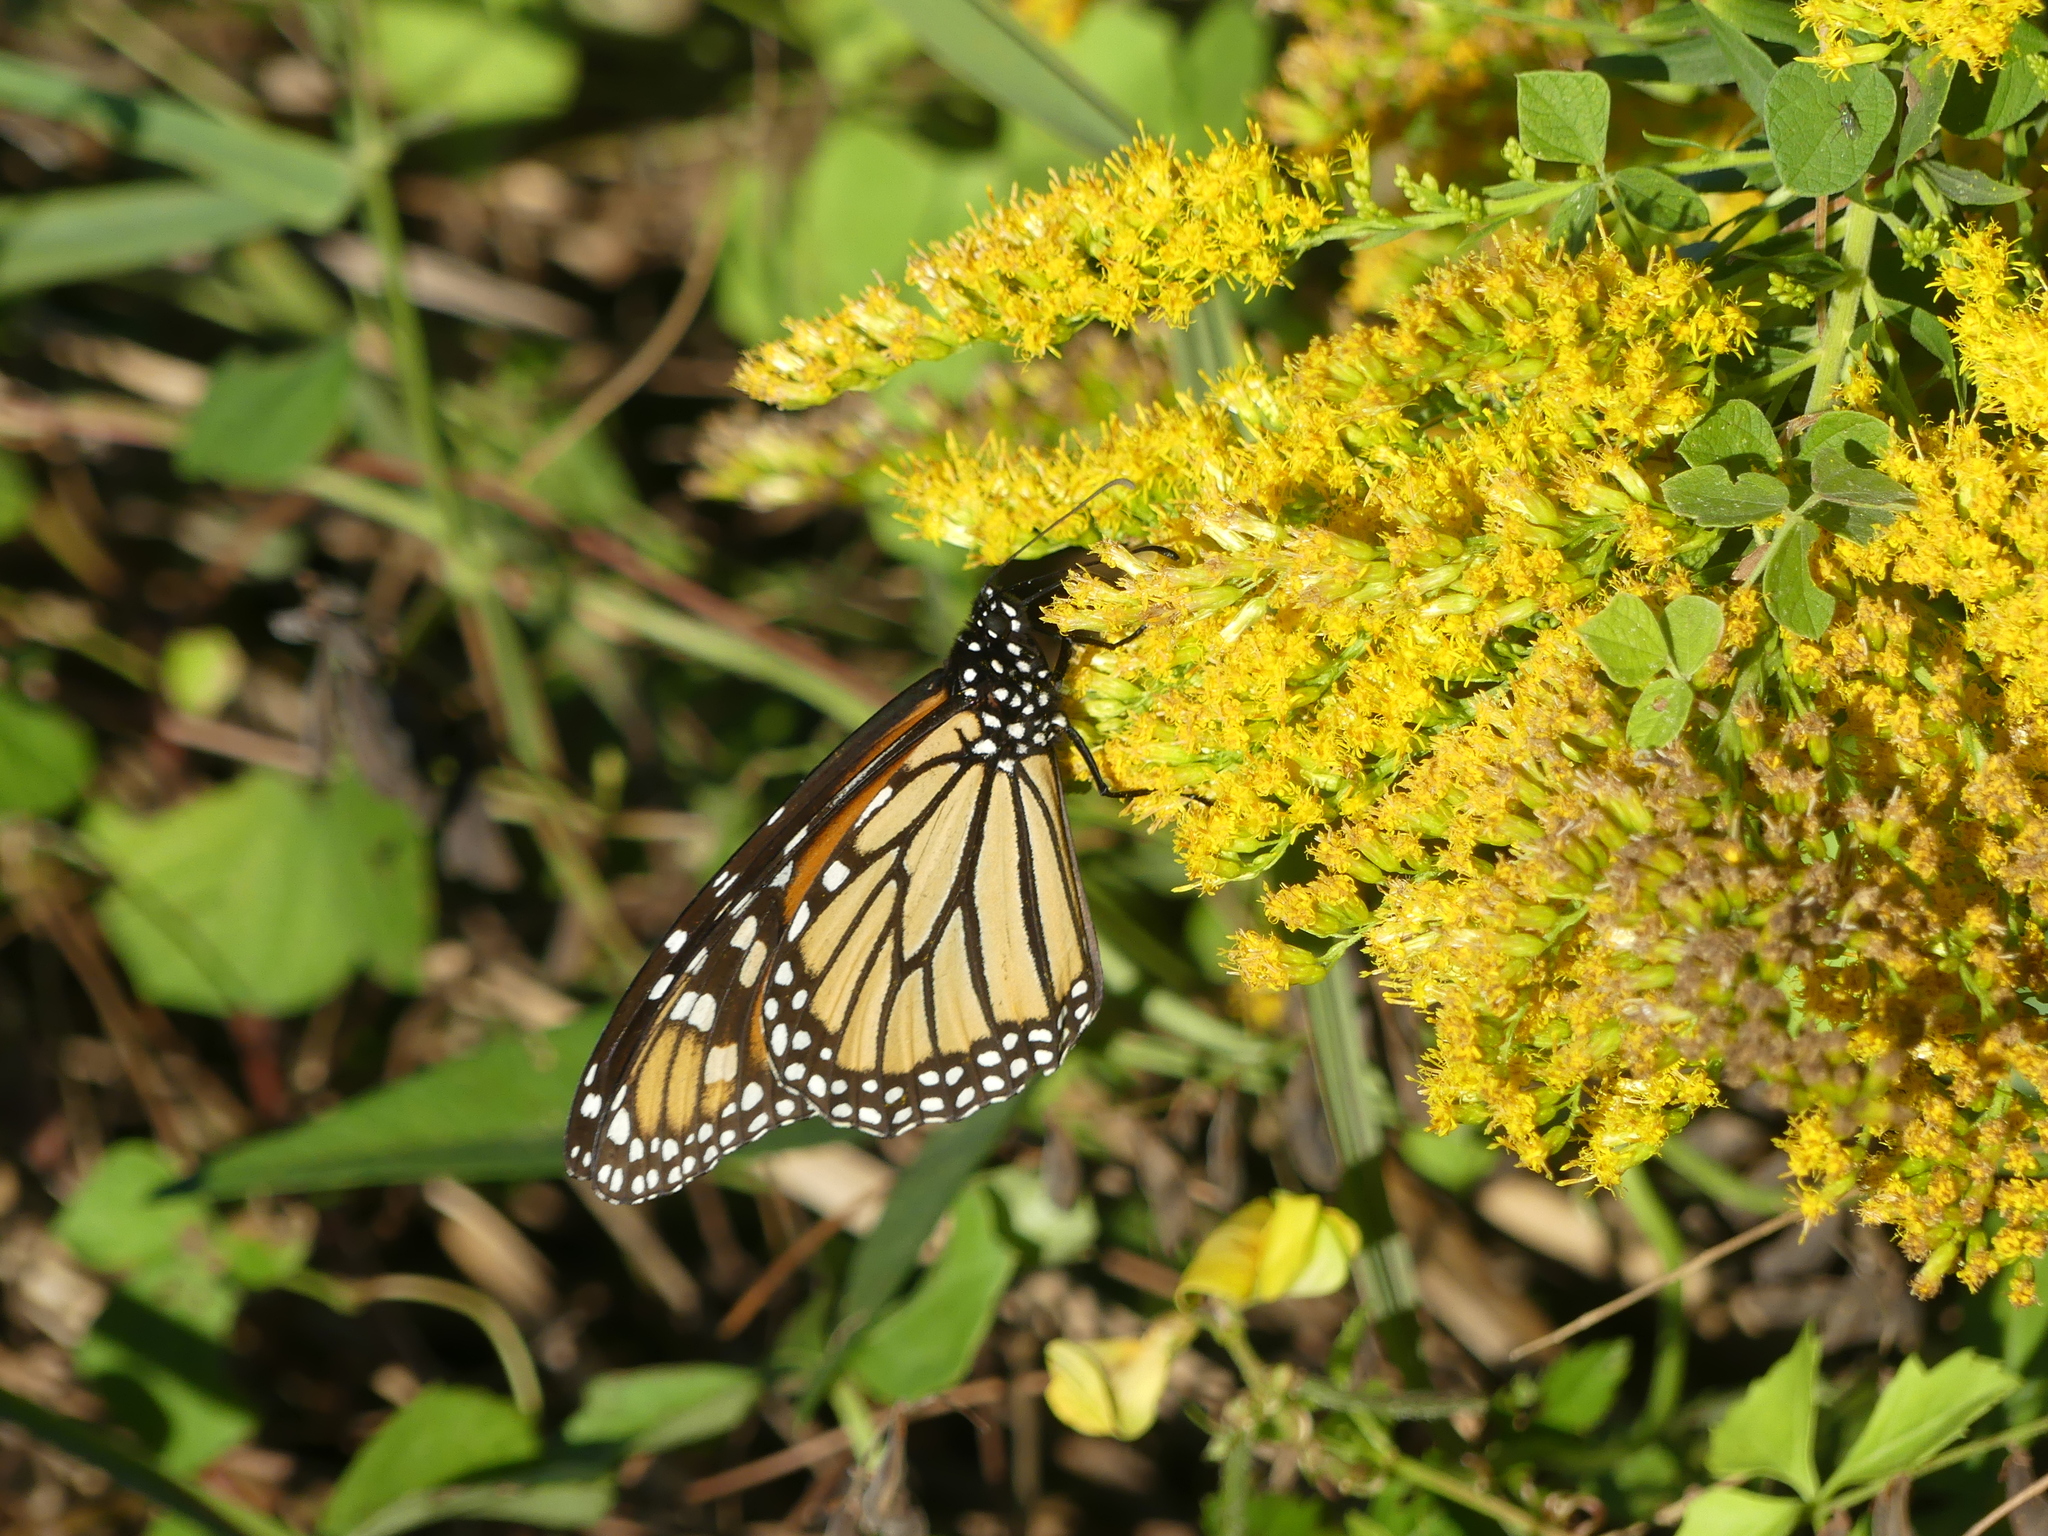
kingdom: Animalia
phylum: Arthropoda
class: Insecta
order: Lepidoptera
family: Nymphalidae
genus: Danaus
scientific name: Danaus plexippus
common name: Monarch
